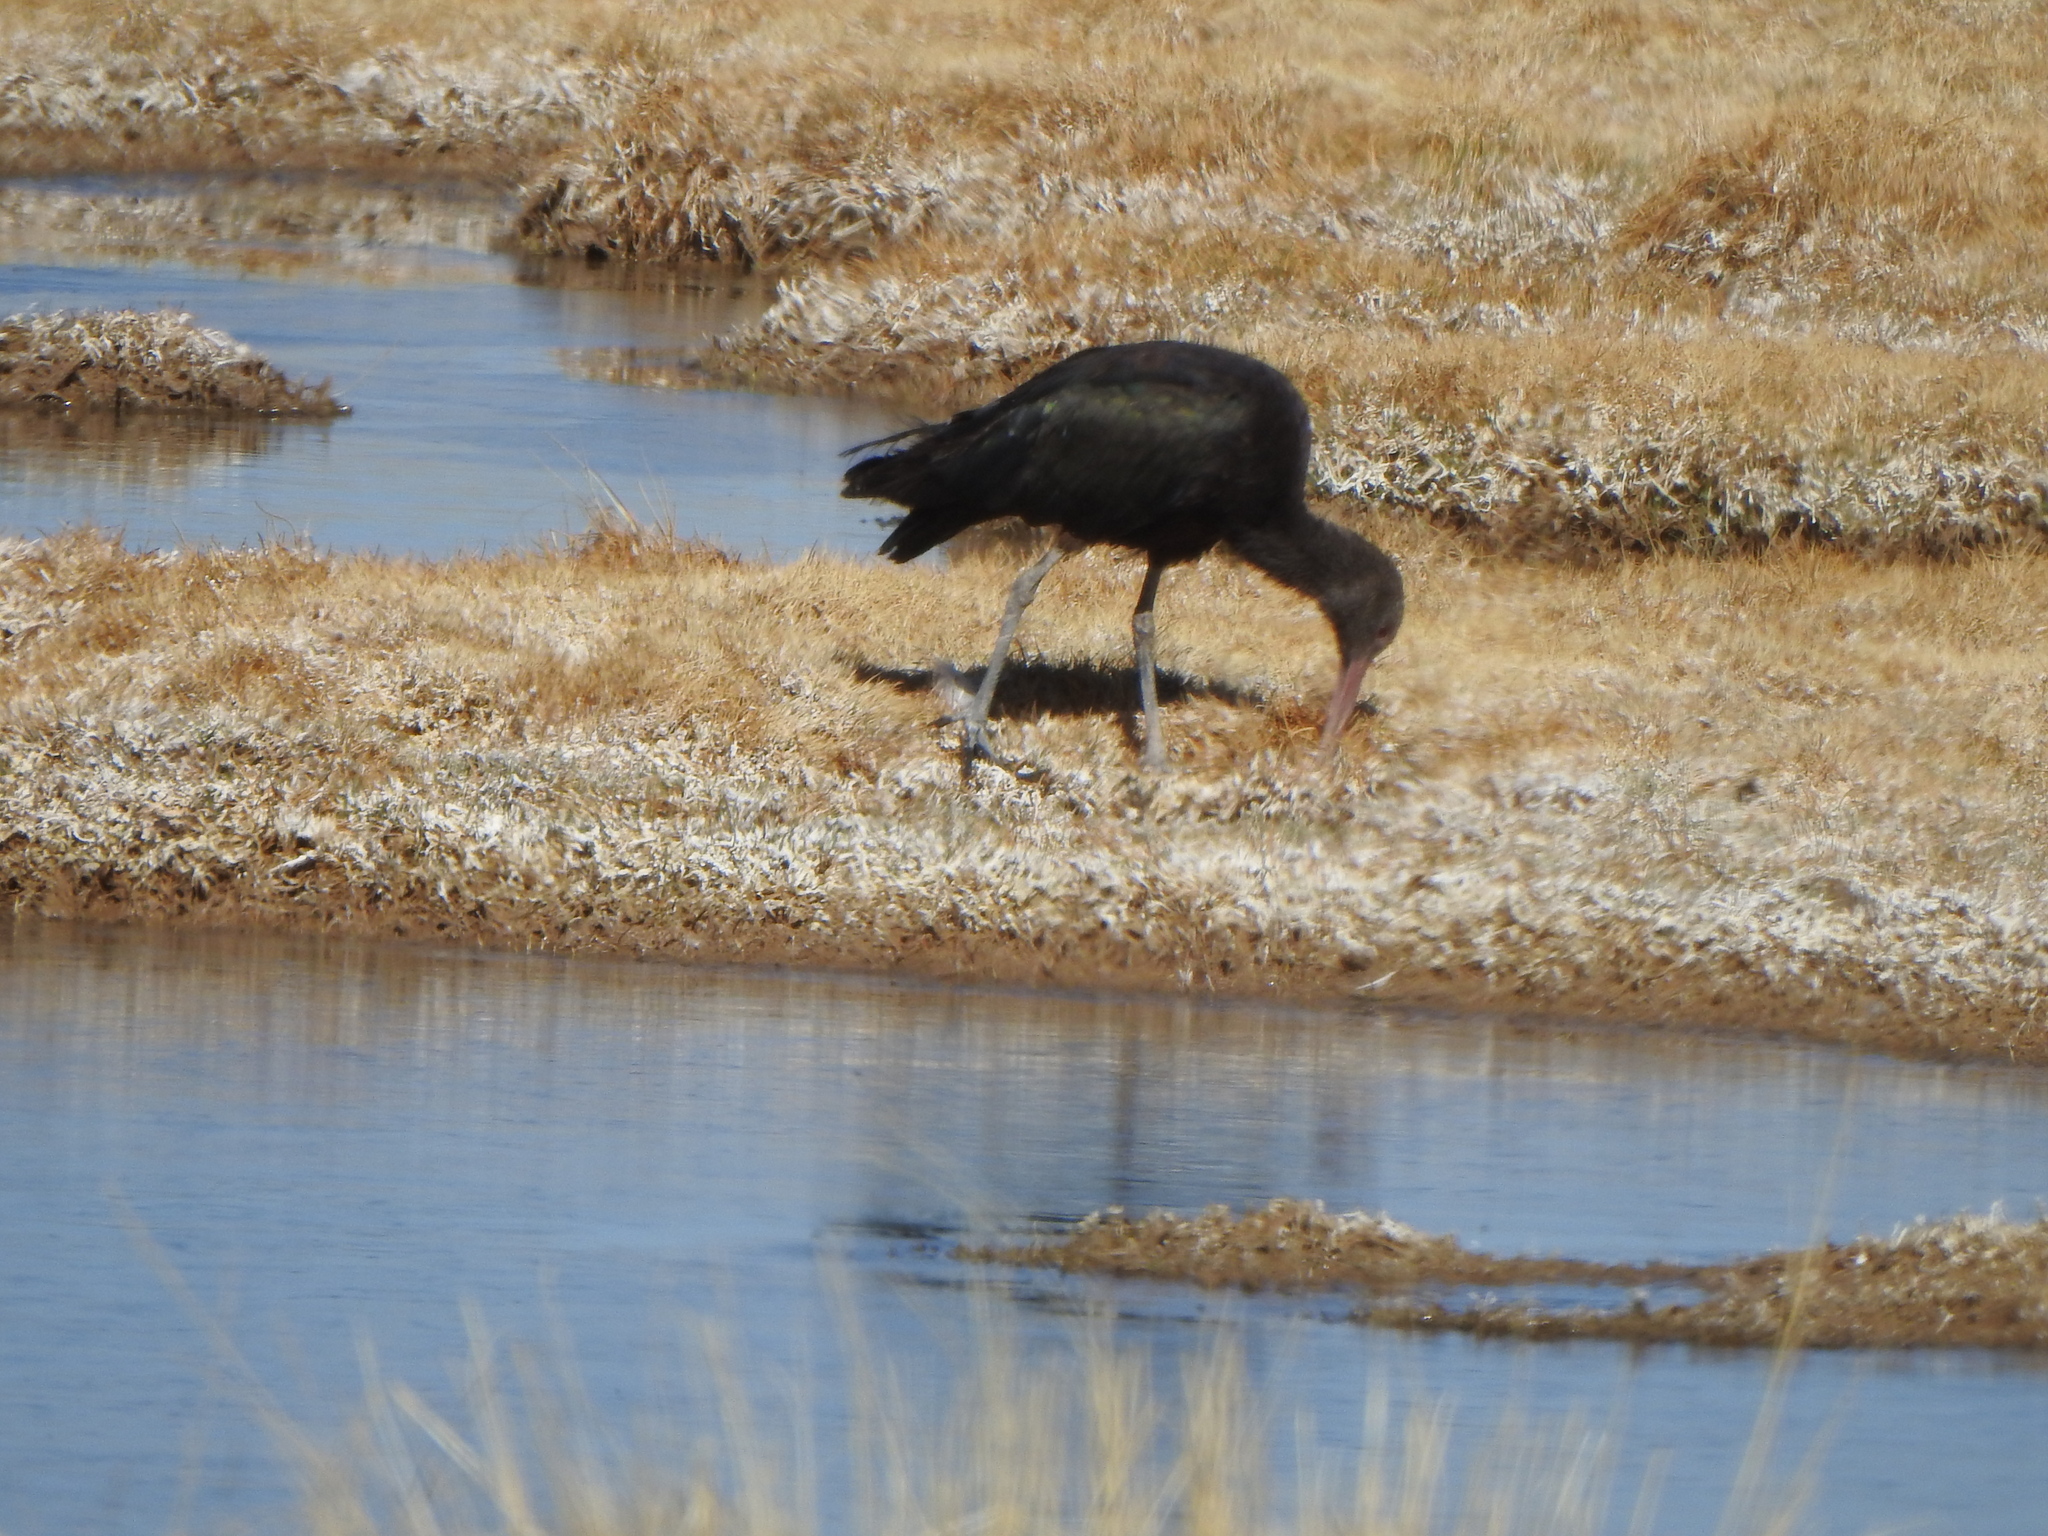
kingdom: Animalia
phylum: Chordata
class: Aves
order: Pelecaniformes
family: Threskiornithidae
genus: Plegadis
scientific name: Plegadis ridgwayi
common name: Puna ibis
